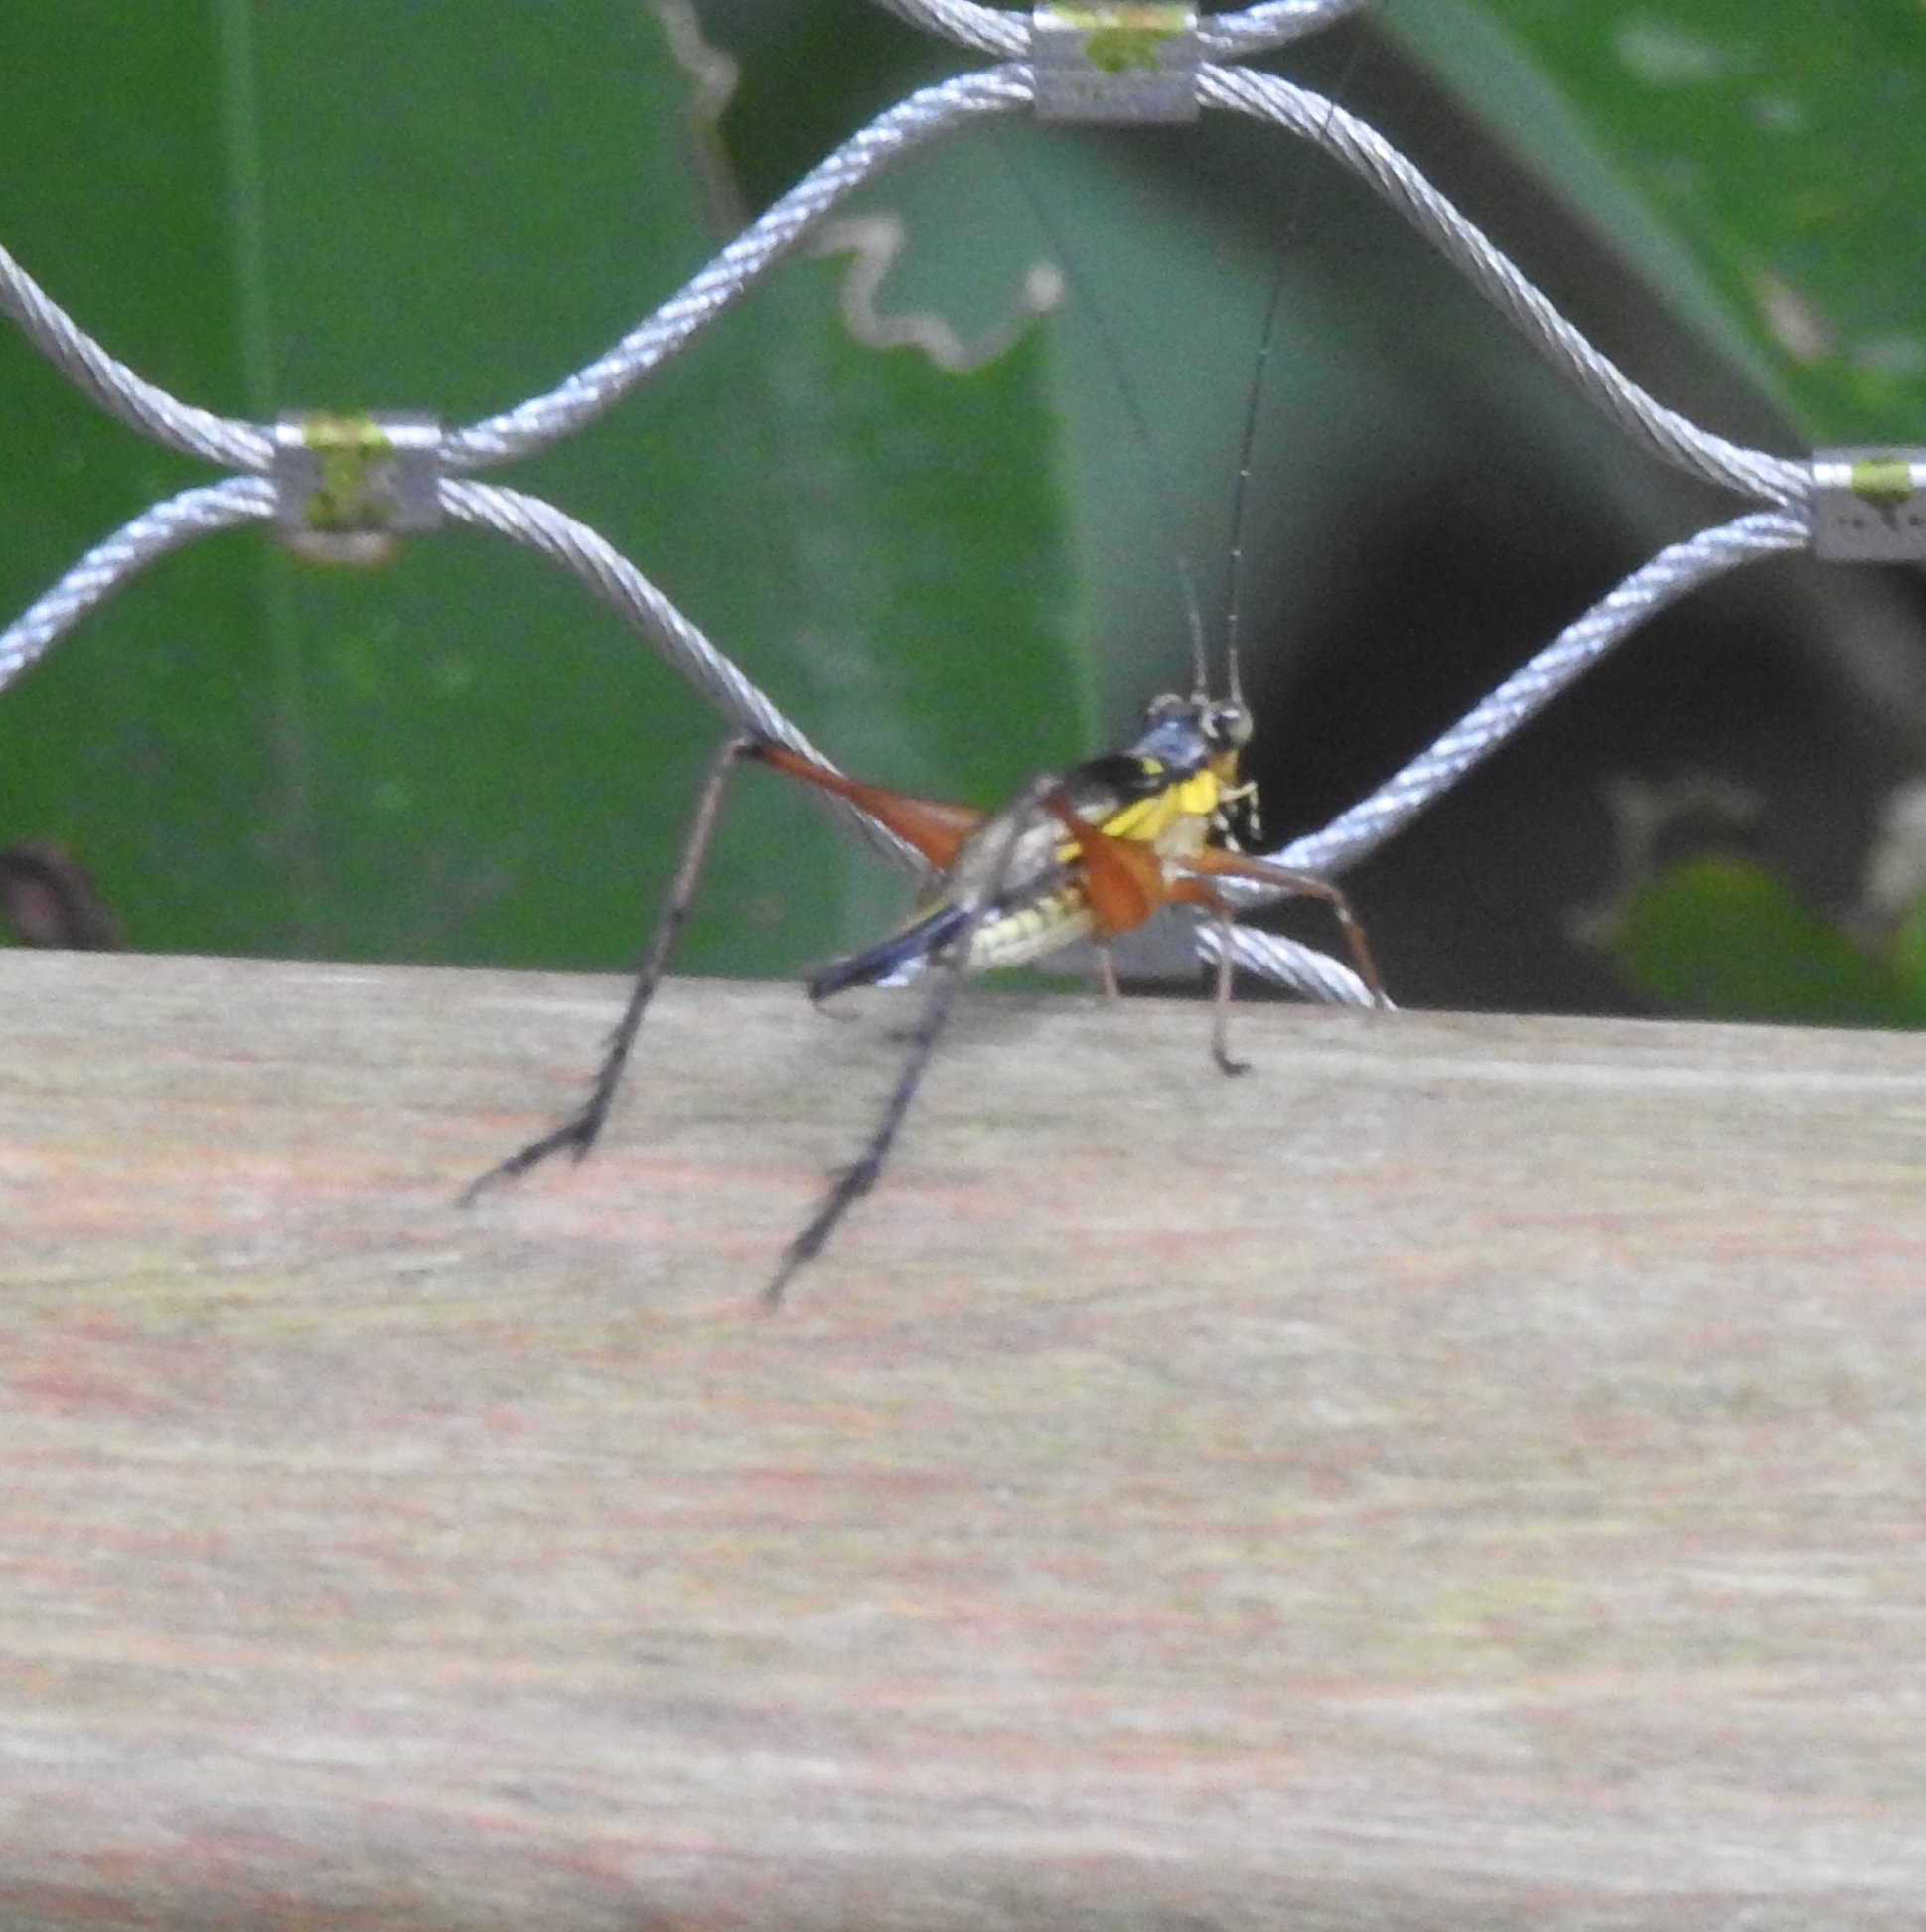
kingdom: Animalia
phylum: Arthropoda
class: Insecta
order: Orthoptera
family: Gryllidae
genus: Nisitrus
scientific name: Nisitrus malaya
